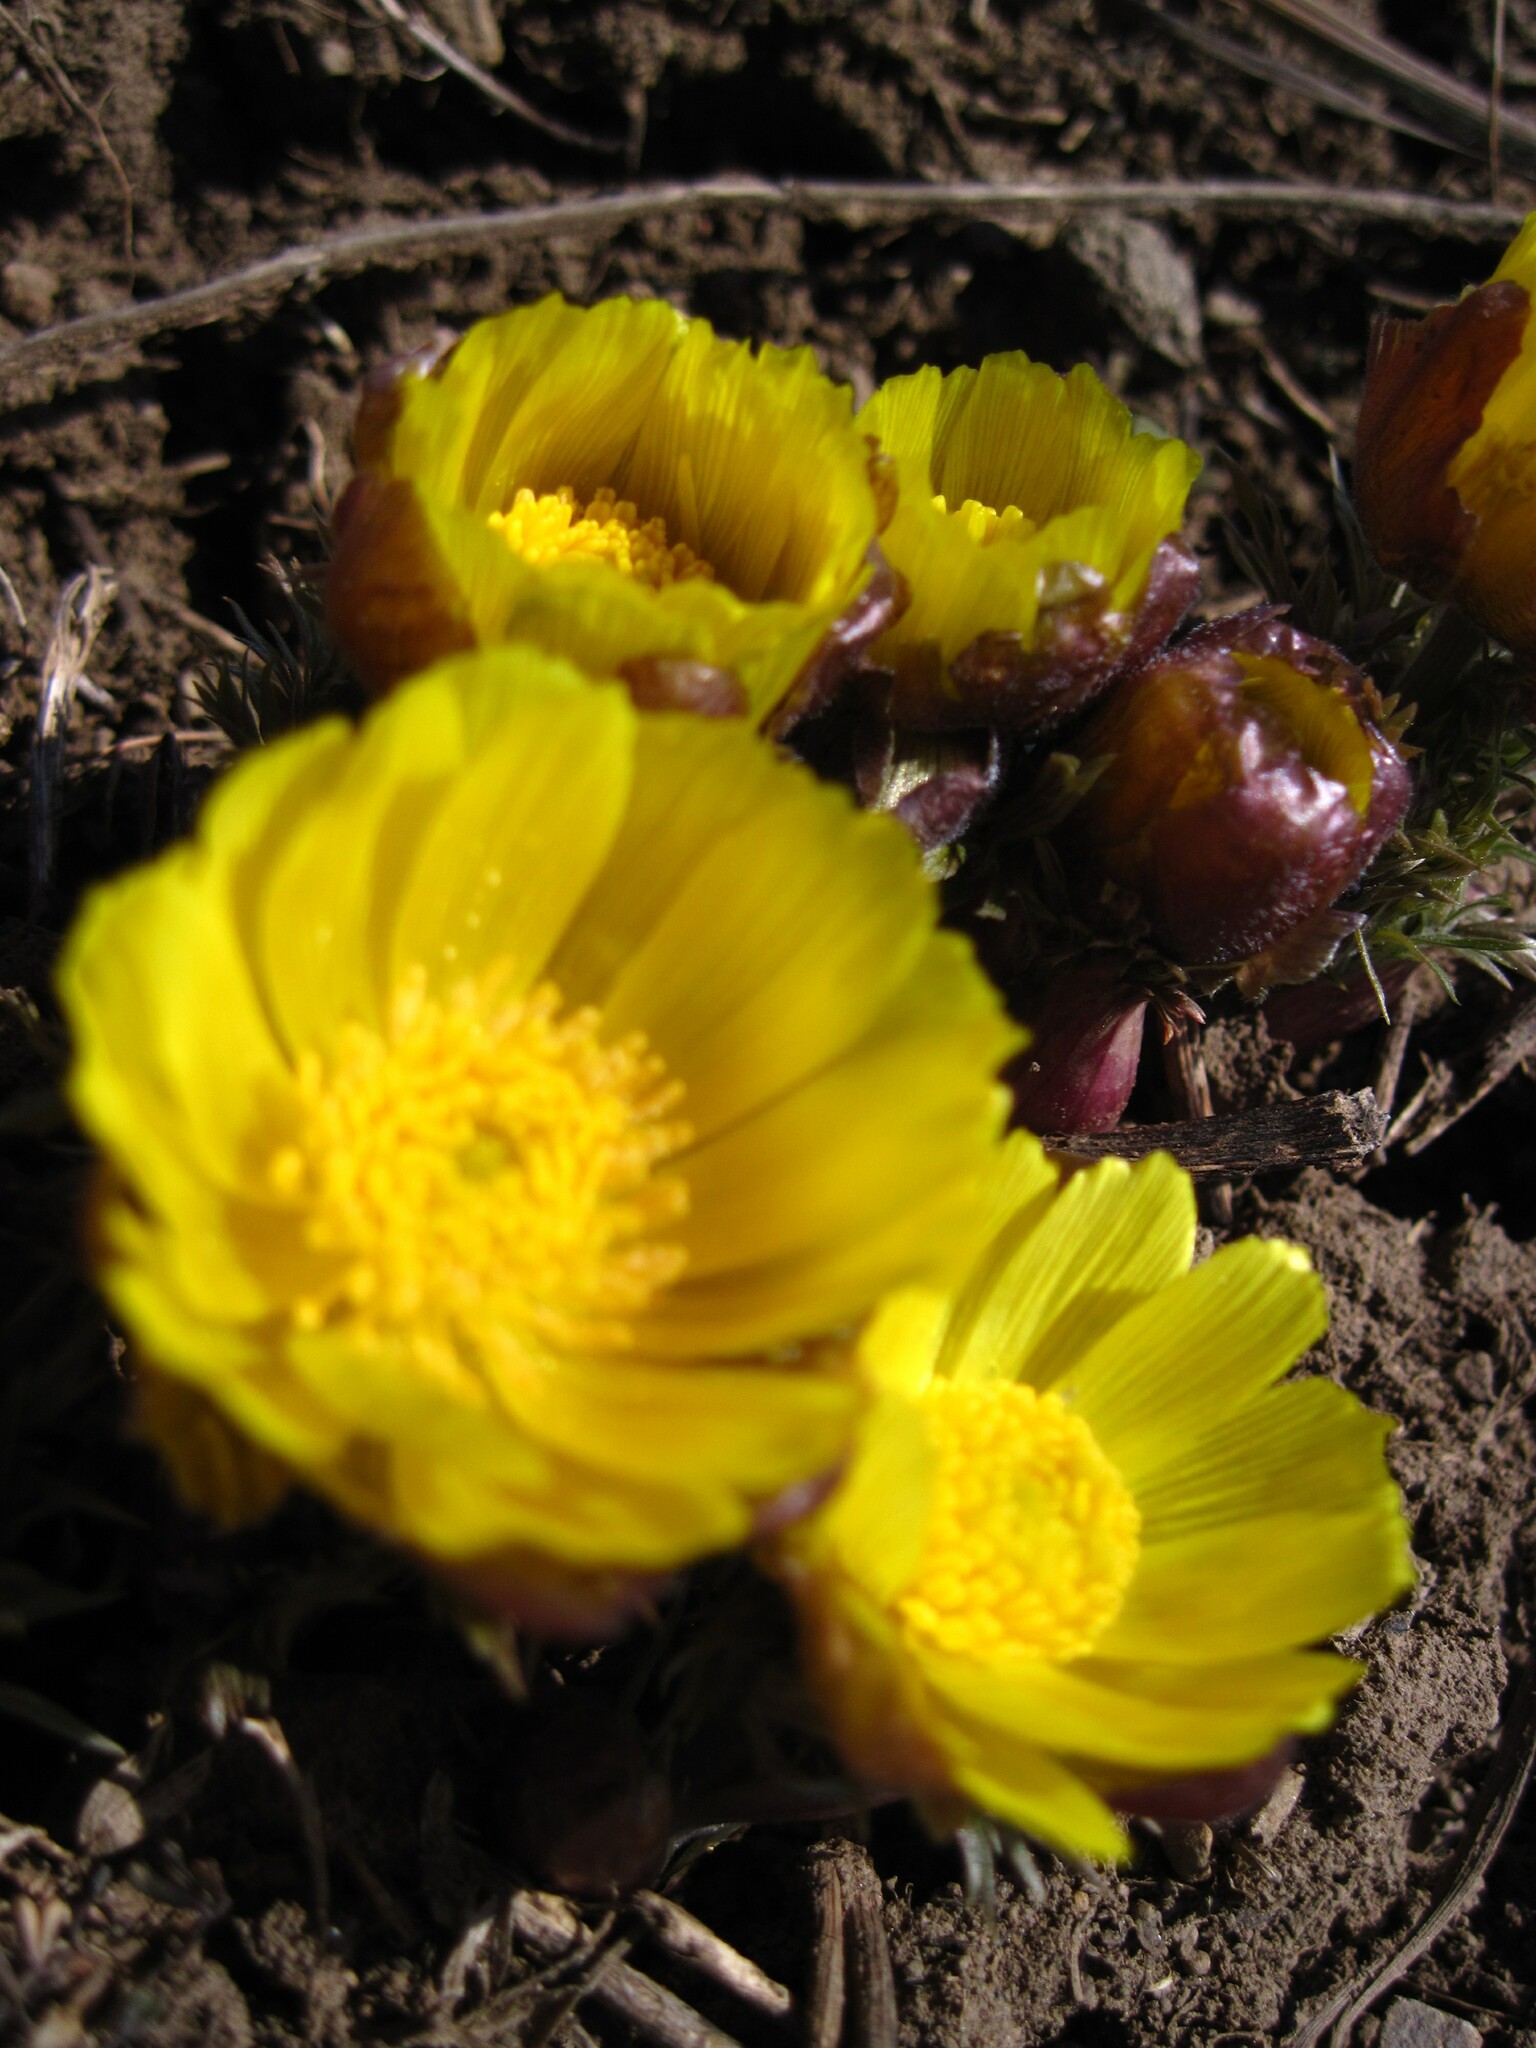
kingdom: Plantae
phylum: Tracheophyta
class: Magnoliopsida
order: Ranunculales
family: Ranunculaceae
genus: Adonis
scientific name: Adonis volgensis
